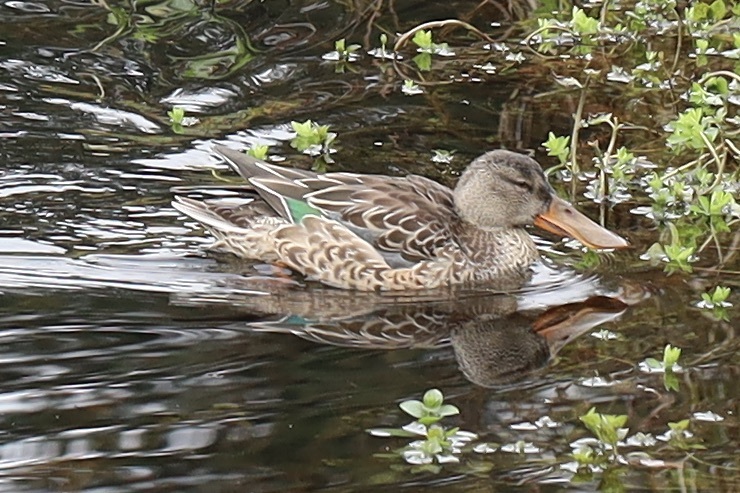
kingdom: Animalia
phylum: Chordata
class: Aves
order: Anseriformes
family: Anatidae
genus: Spatula
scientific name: Spatula clypeata
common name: Northern shoveler
